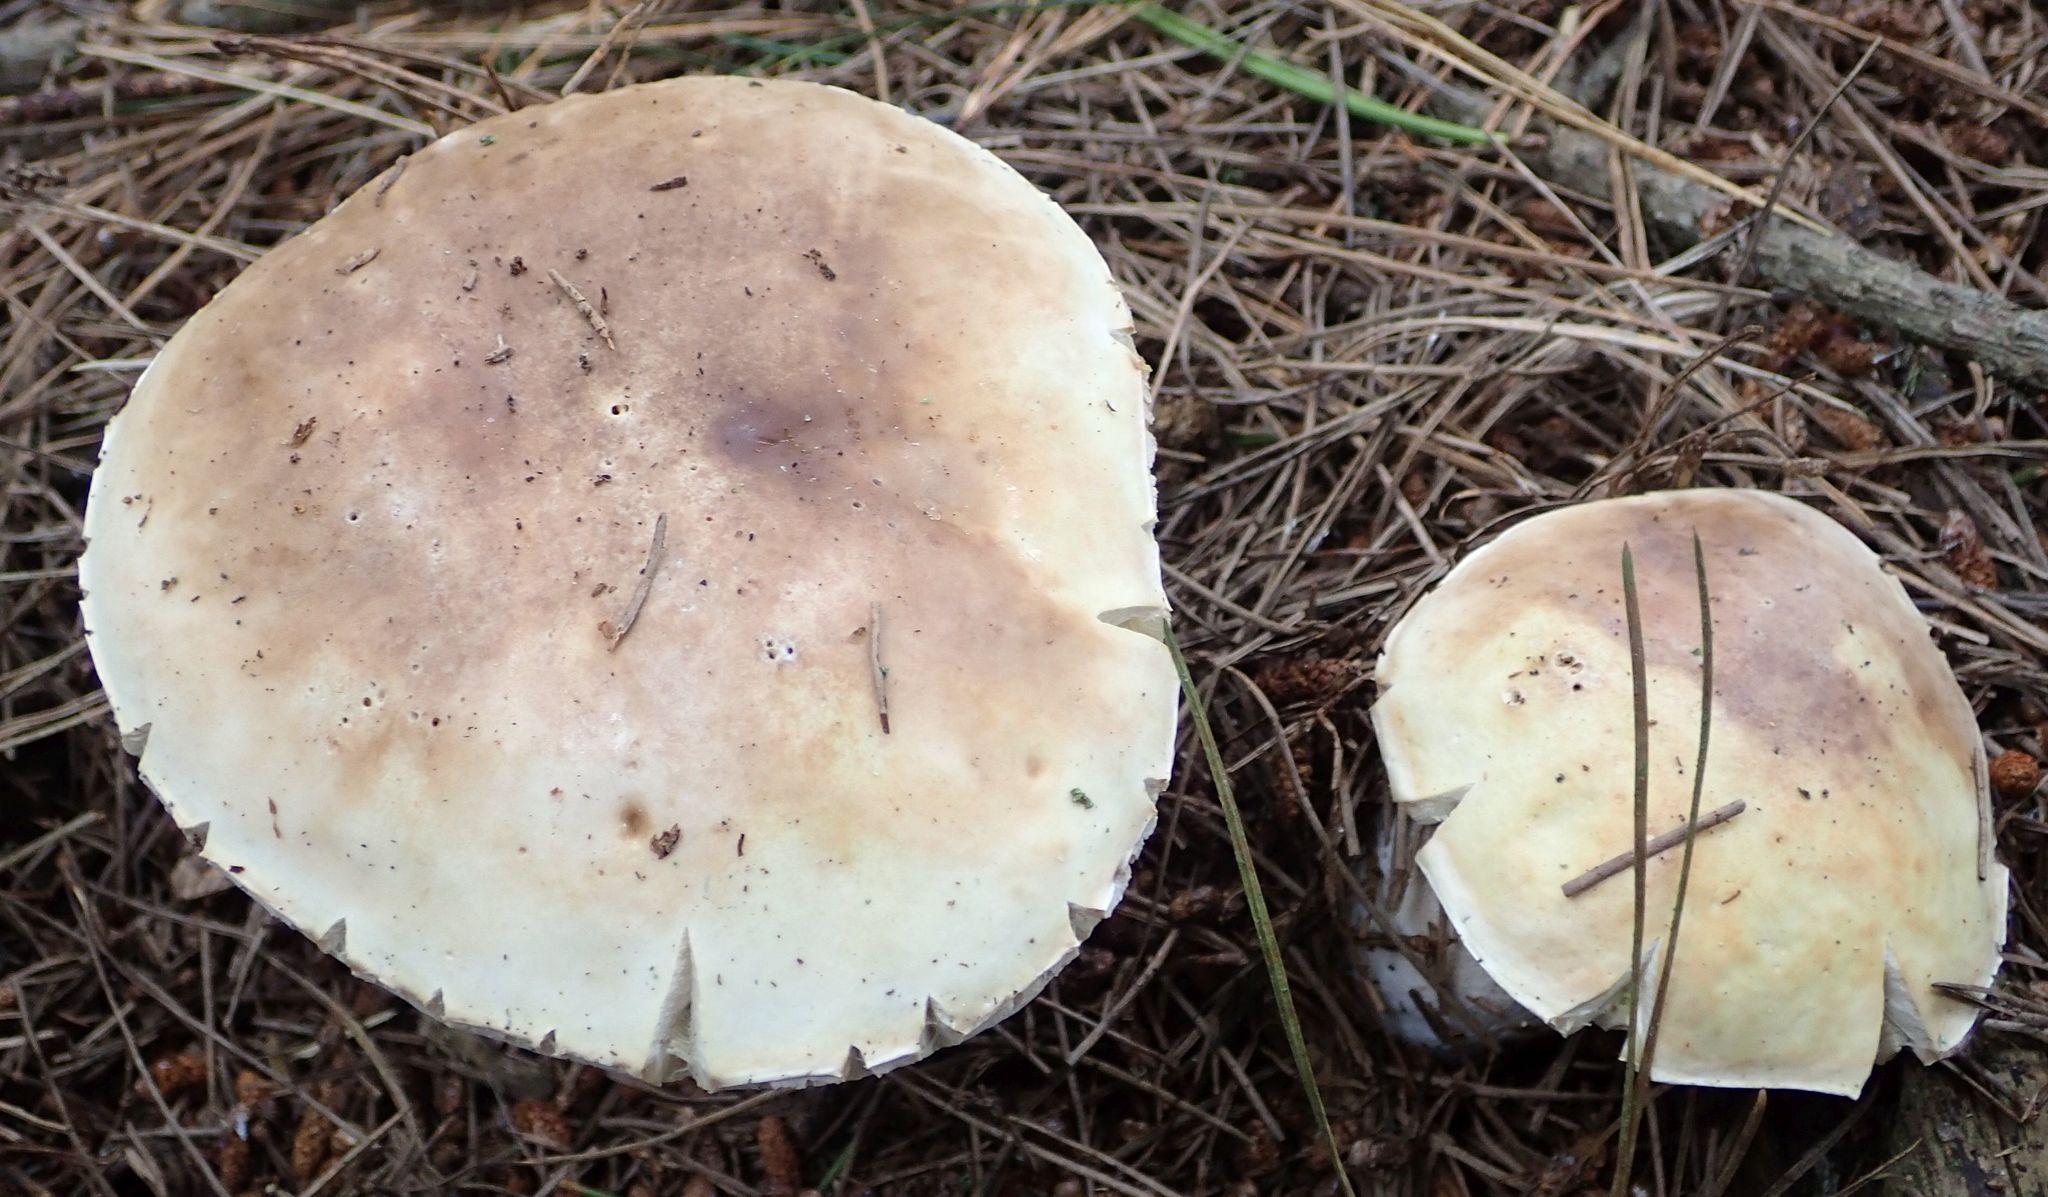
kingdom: Fungi
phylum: Basidiomycota
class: Agaricomycetes
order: Boletales
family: Boletaceae
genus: Chalciporus
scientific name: Chalciporus piperatus
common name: Peppery bolete
